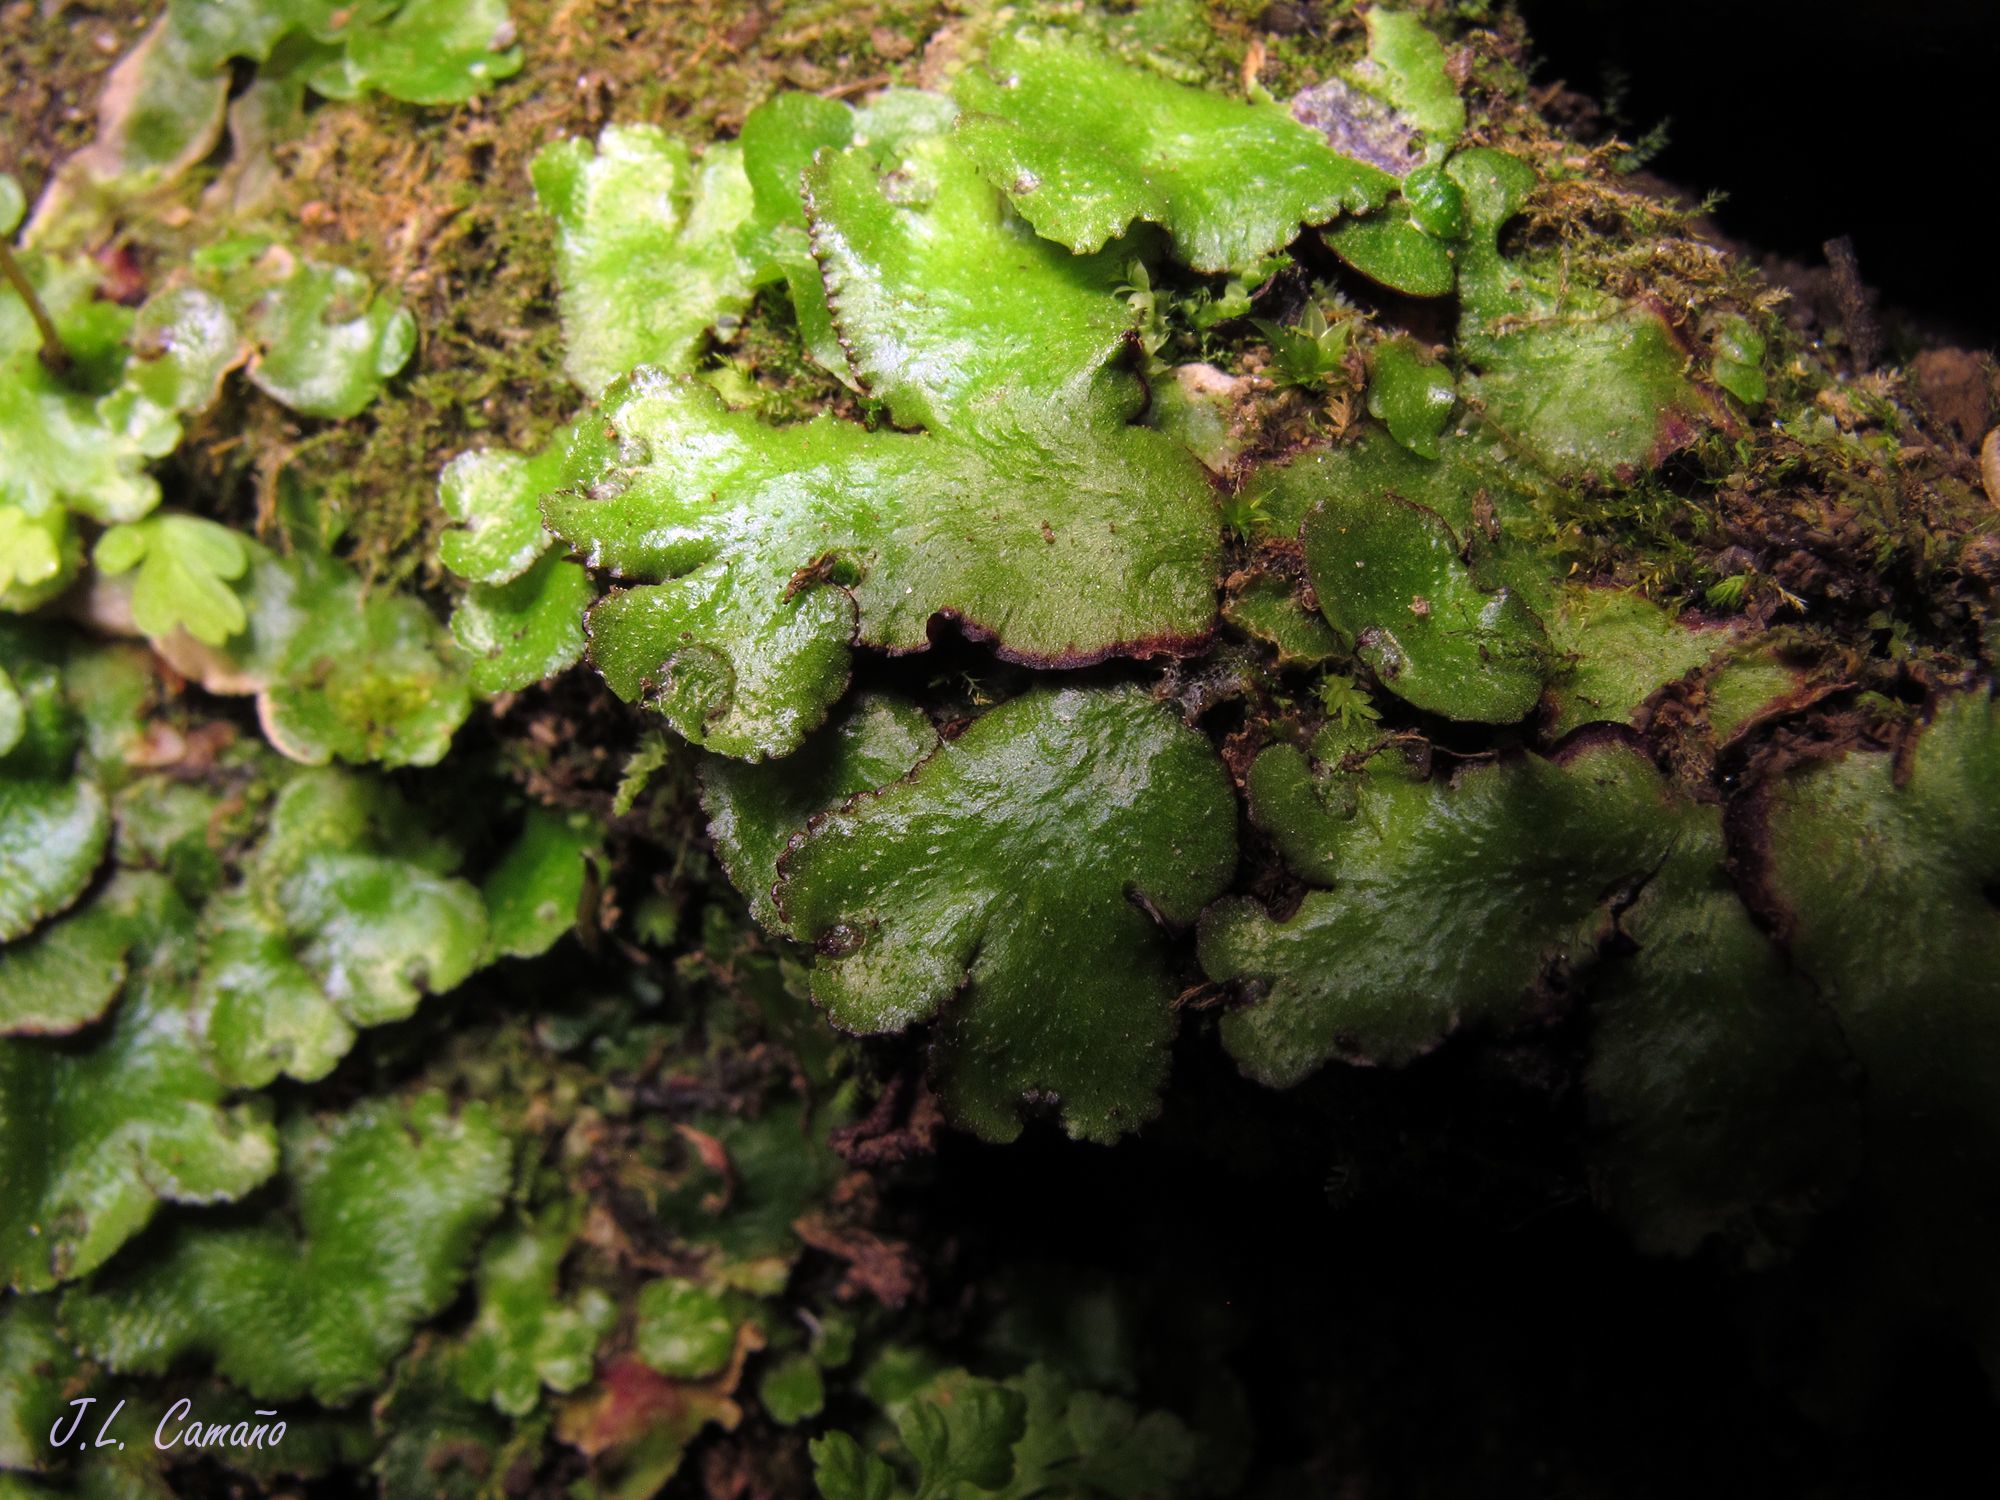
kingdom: Plantae
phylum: Marchantiophyta
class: Marchantiopsida
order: Marchantiales
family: Aytoniaceae
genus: Reboulia
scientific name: Reboulia hemisphaerica
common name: Purple-margined liverwort
